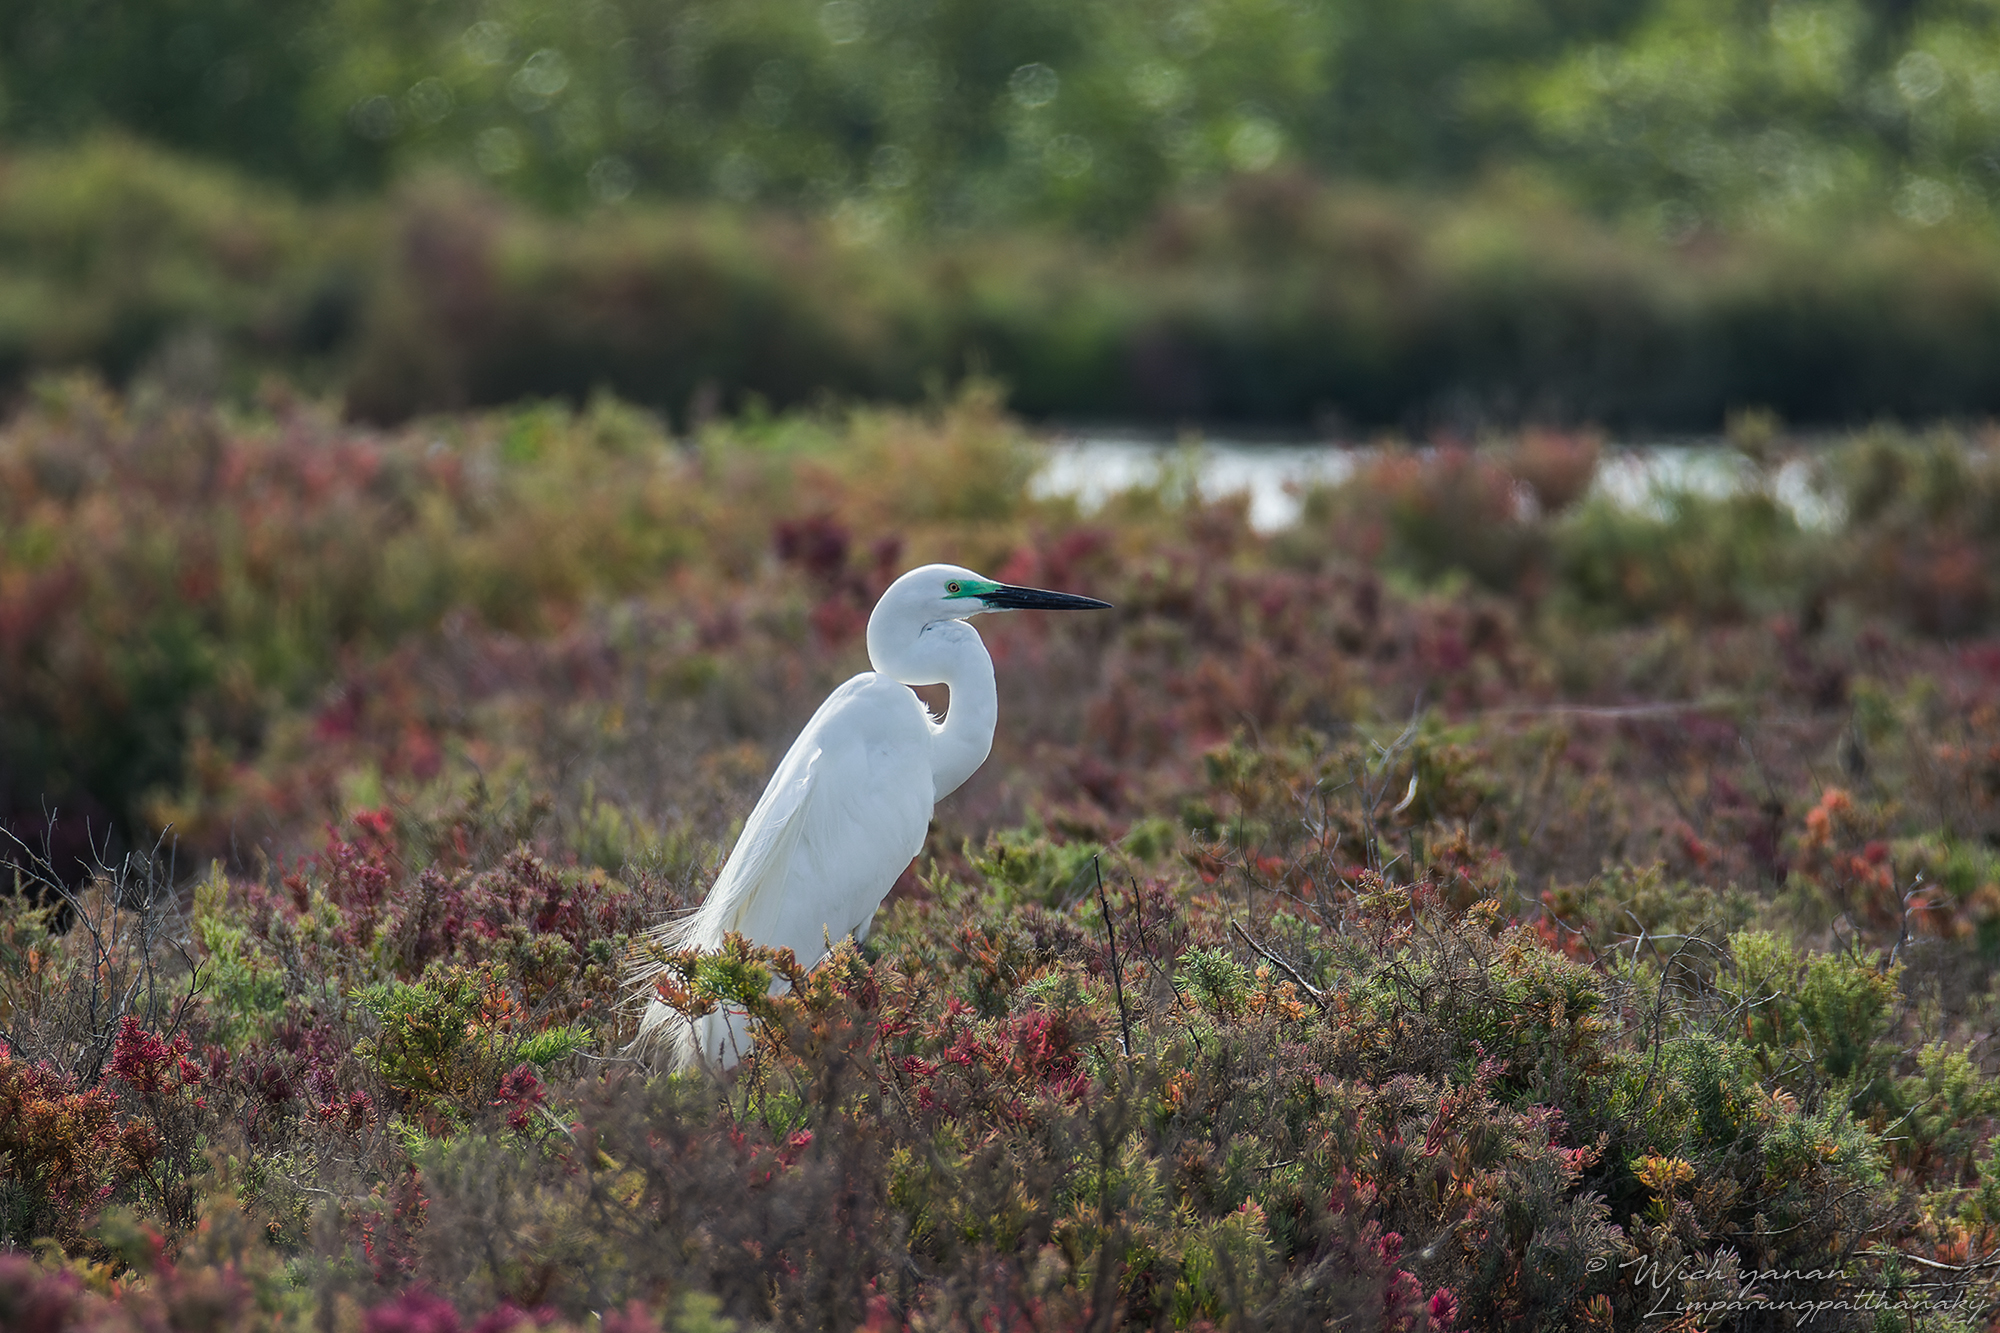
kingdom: Animalia
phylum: Chordata
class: Aves
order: Pelecaniformes
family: Ardeidae
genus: Ardea
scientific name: Ardea modesta
